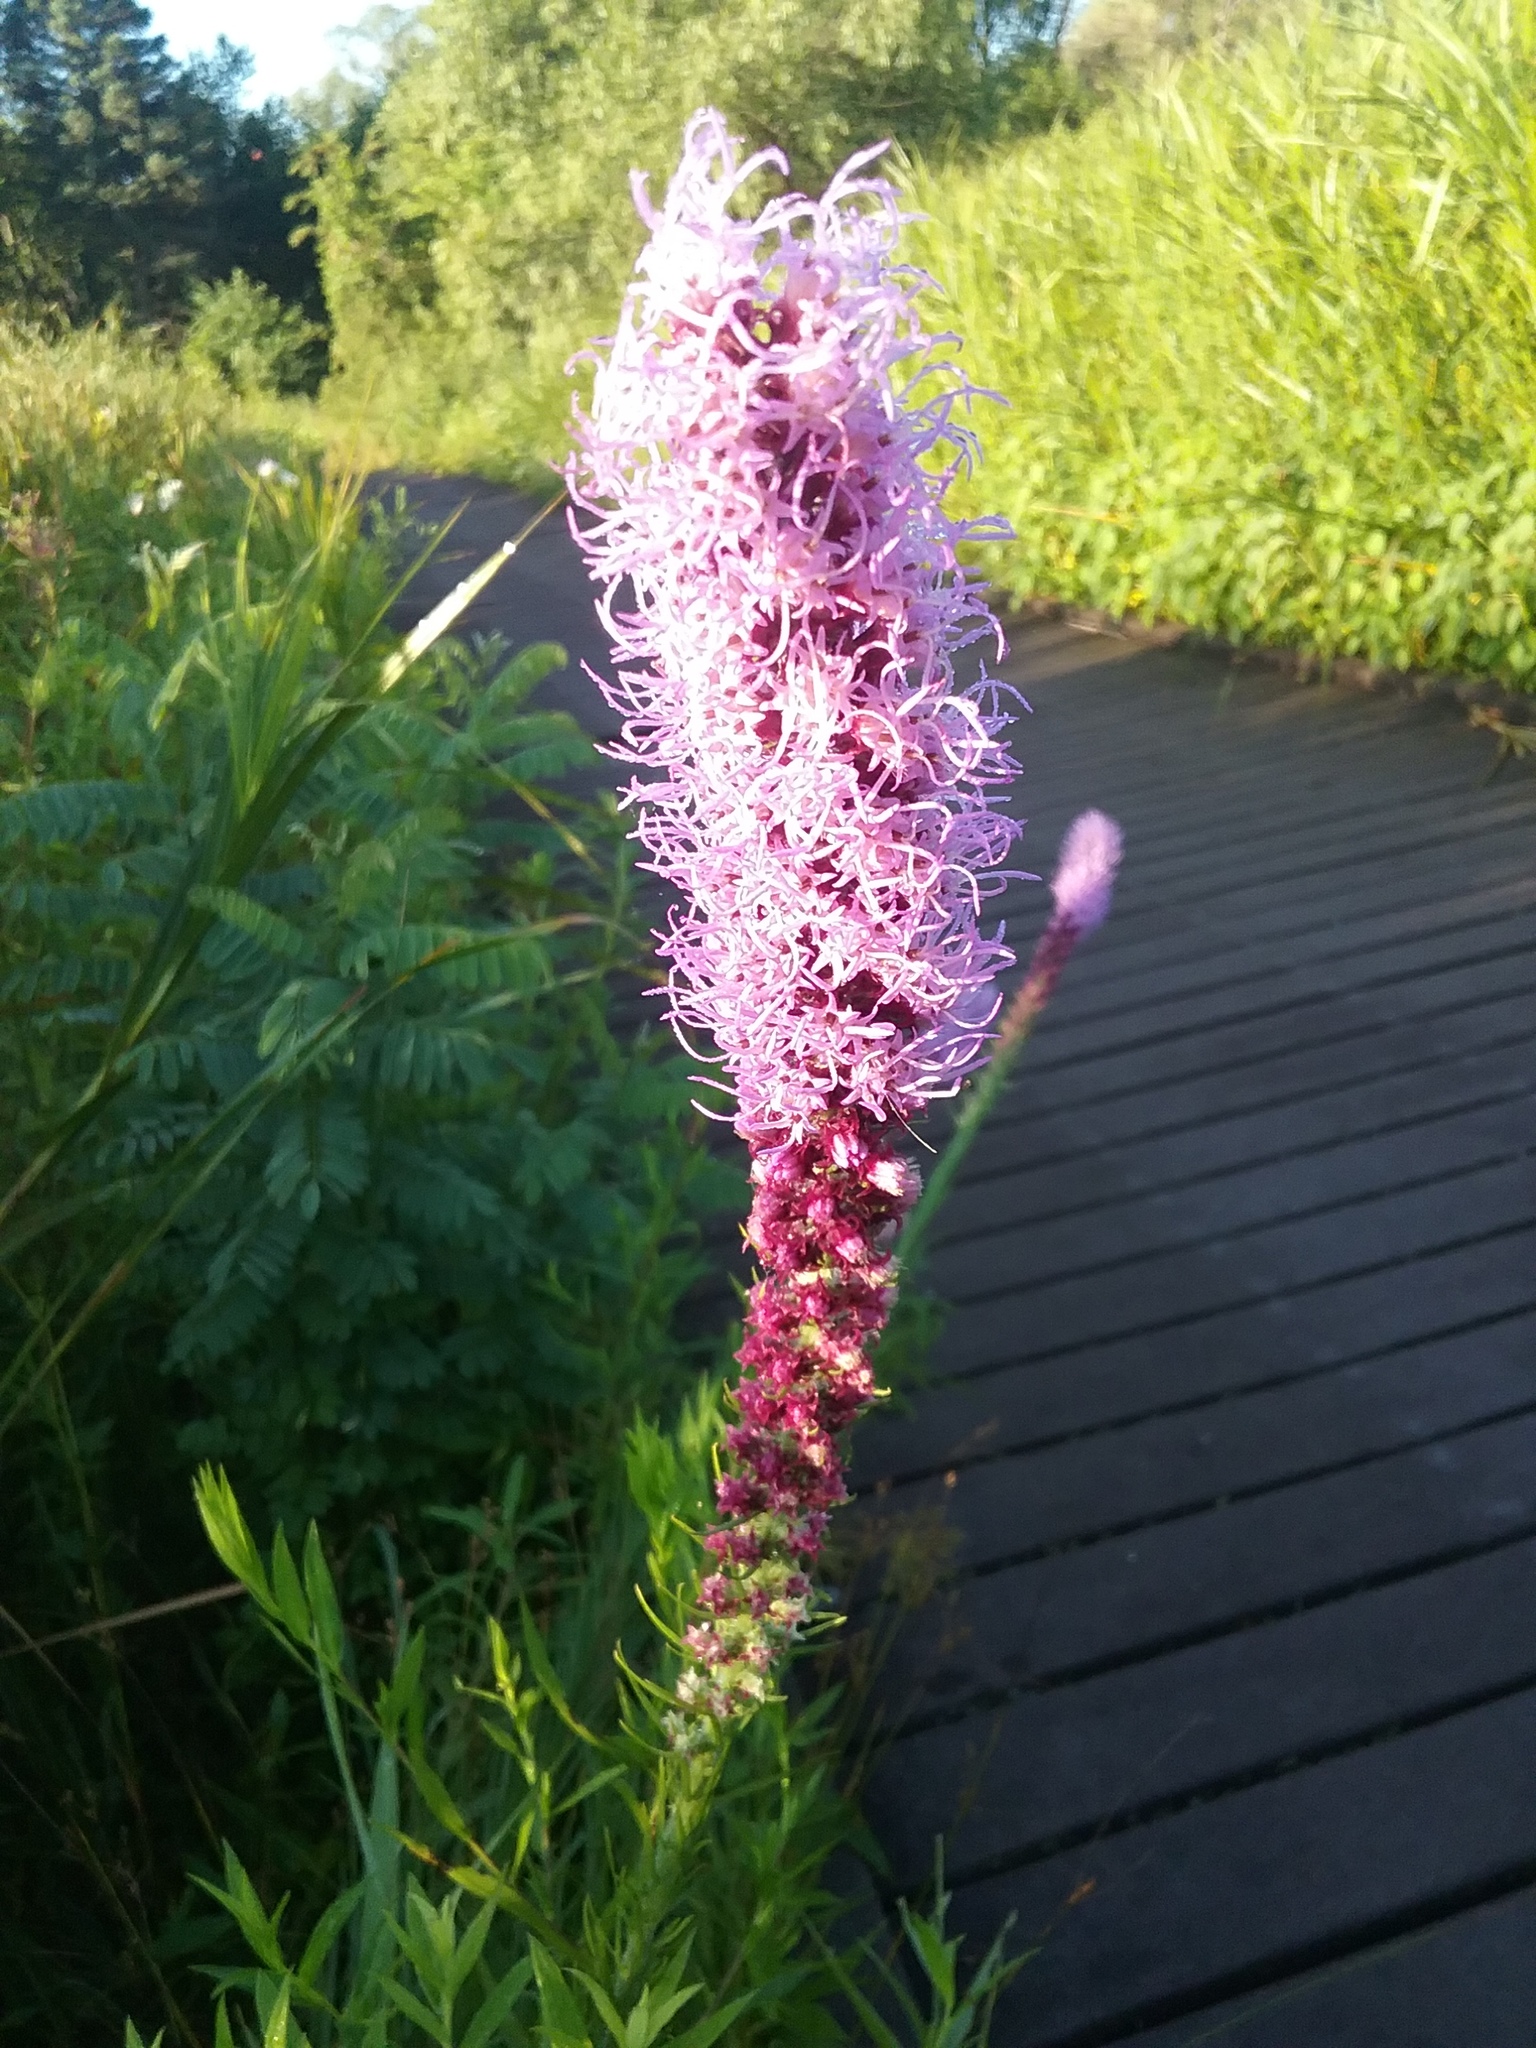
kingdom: Plantae
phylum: Tracheophyta
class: Magnoliopsida
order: Asterales
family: Asteraceae
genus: Liatris
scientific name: Liatris pycnostachya
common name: Cattail gayfeather
